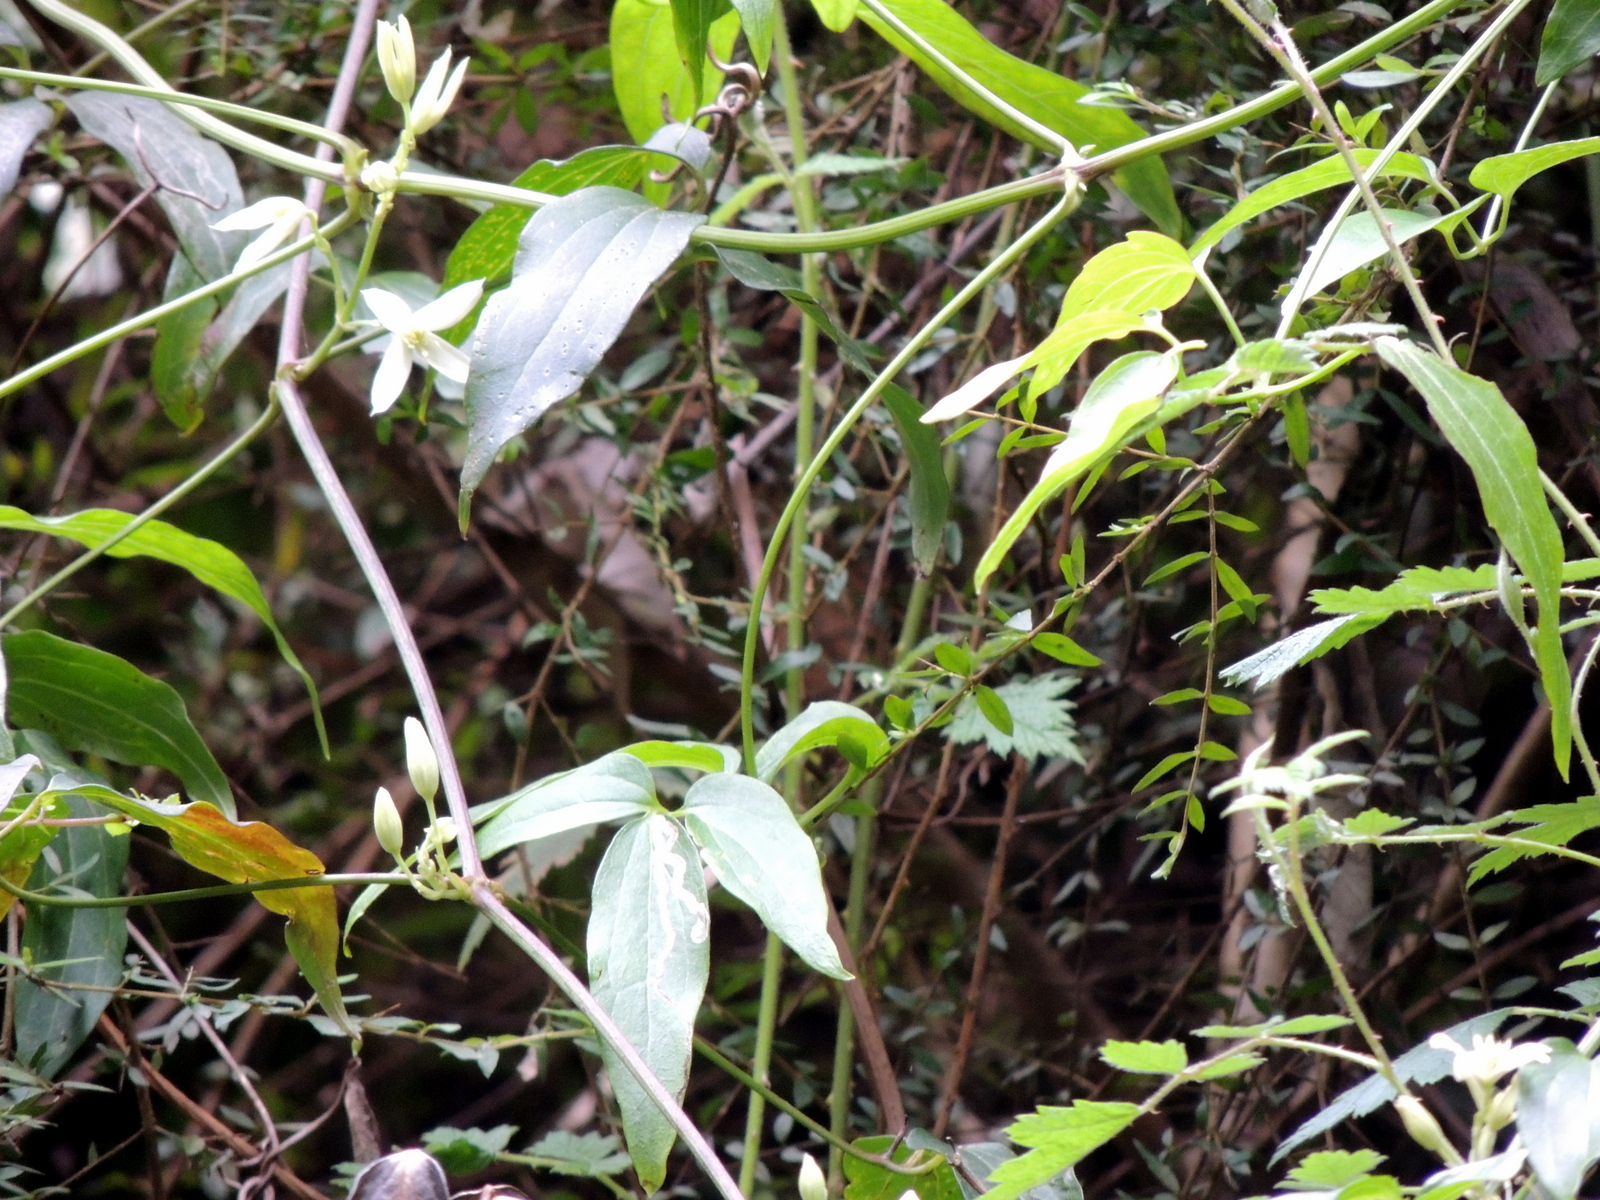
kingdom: Plantae
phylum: Tracheophyta
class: Magnoliopsida
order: Ranunculales
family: Ranunculaceae
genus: Clematis
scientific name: Clematis aristata
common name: Mountain clematis
